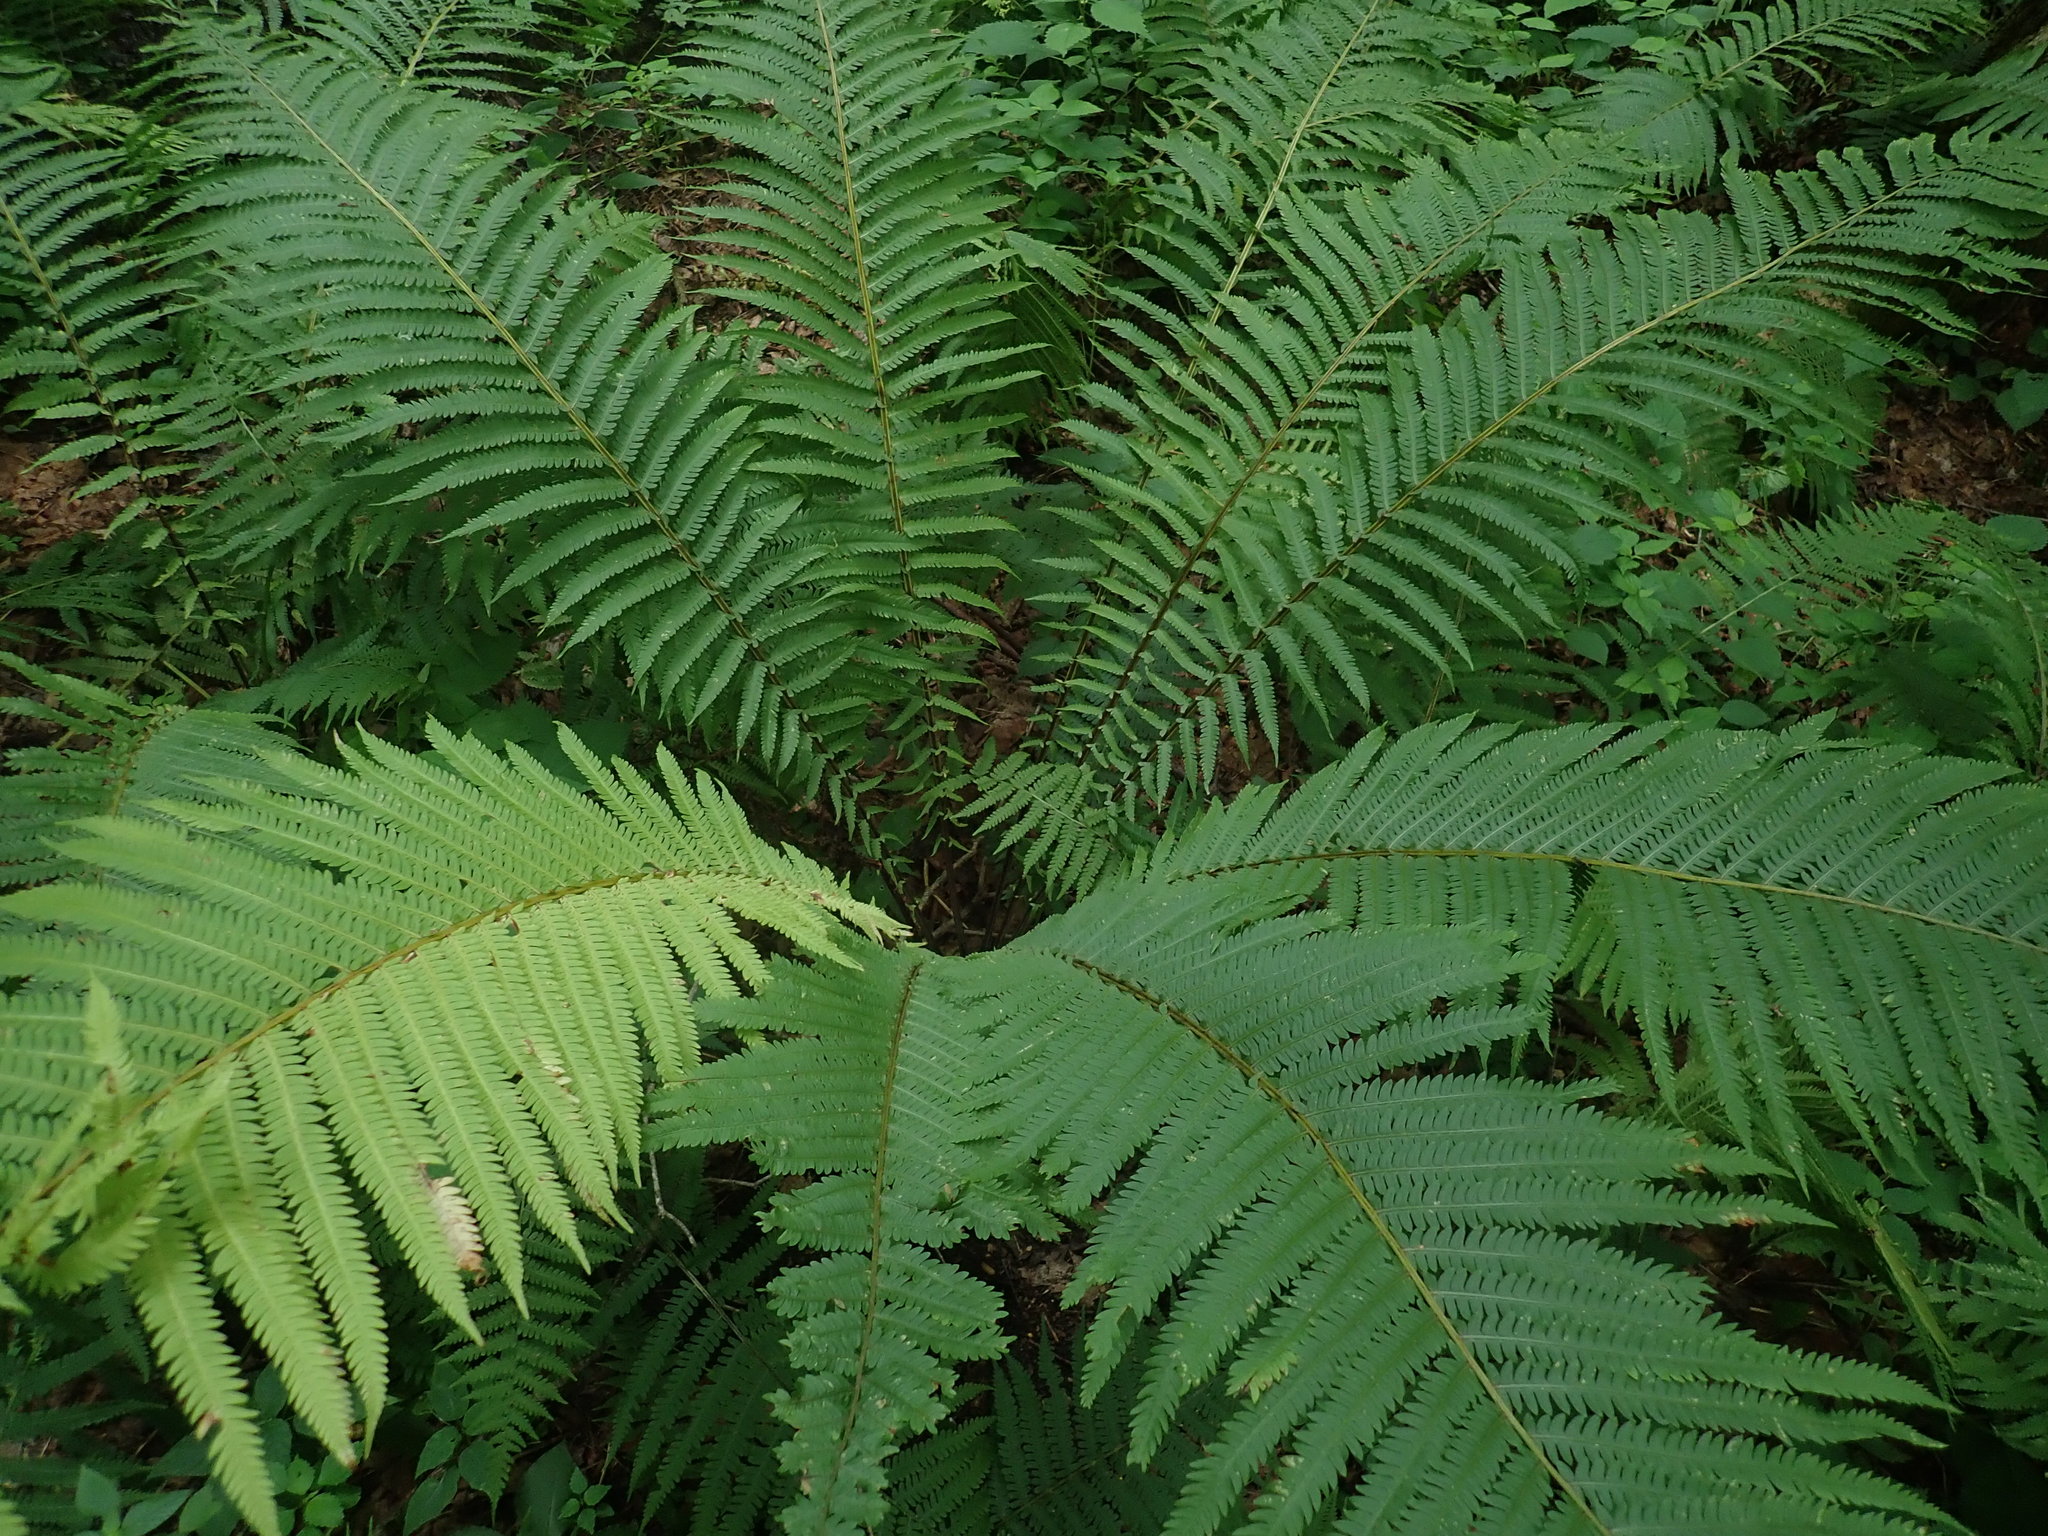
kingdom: Plantae
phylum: Tracheophyta
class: Polypodiopsida
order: Polypodiales
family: Onocleaceae
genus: Matteuccia
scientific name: Matteuccia struthiopteris
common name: Ostrich fern
